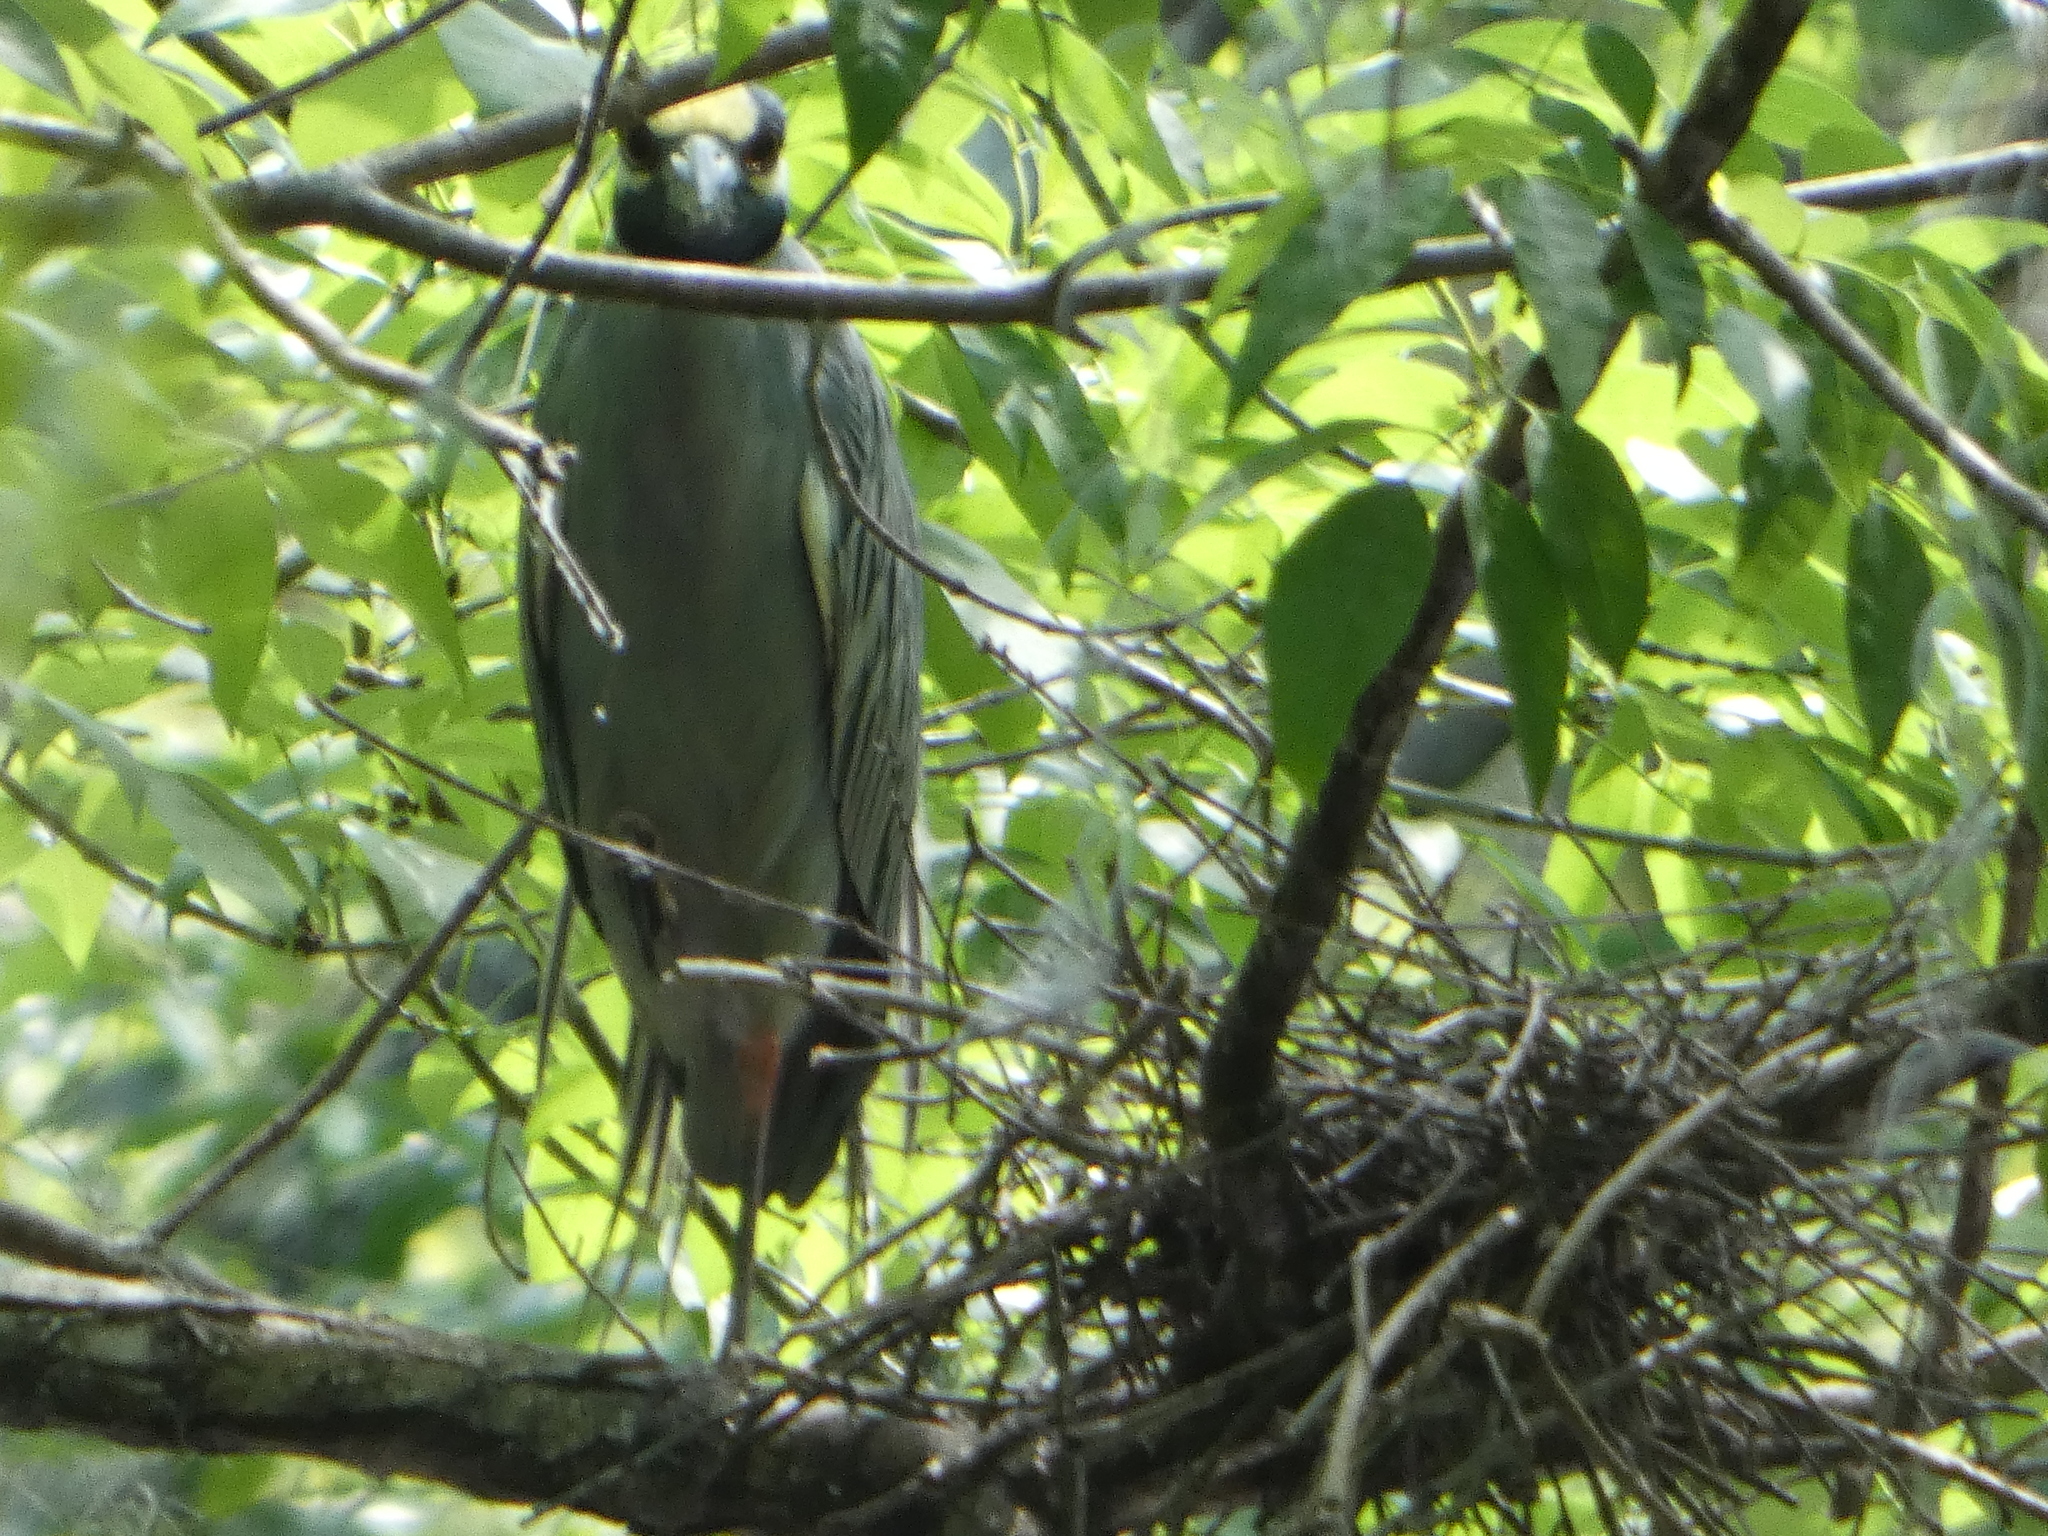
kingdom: Animalia
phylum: Chordata
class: Aves
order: Pelecaniformes
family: Ardeidae
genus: Nyctanassa
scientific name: Nyctanassa violacea
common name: Yellow-crowned night heron
